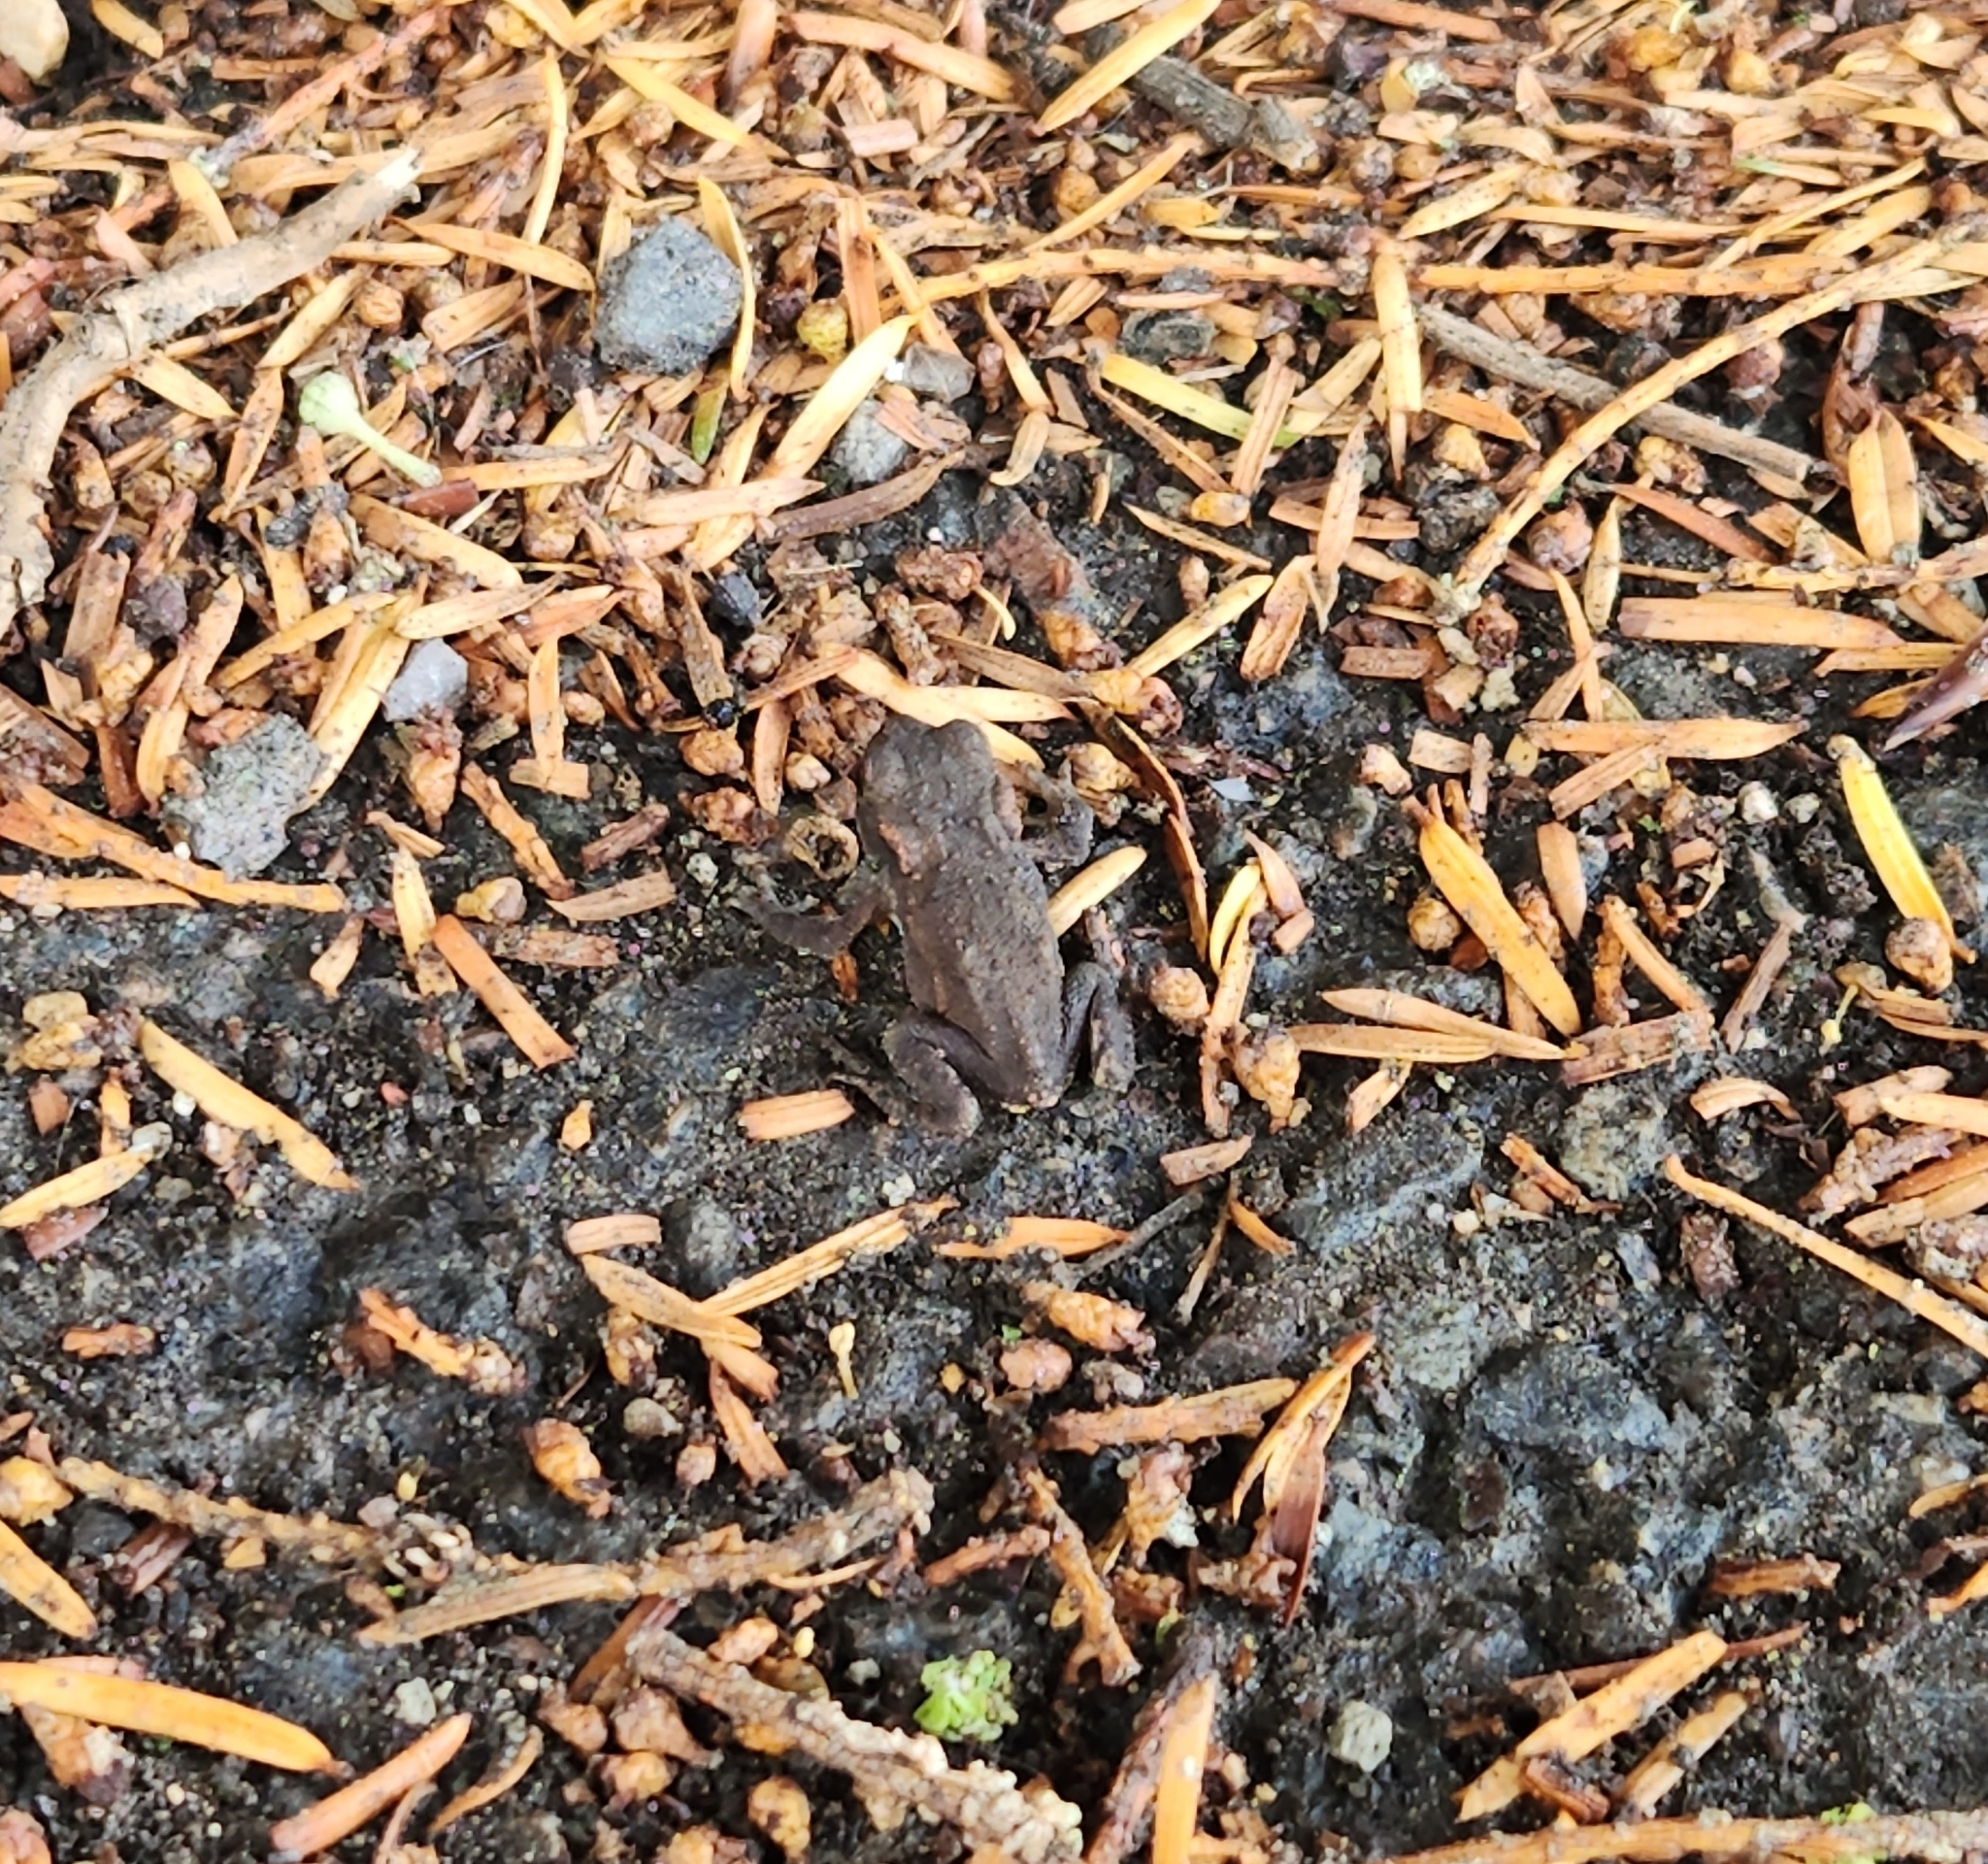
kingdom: Animalia
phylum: Chordata
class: Amphibia
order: Anura
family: Bufonidae
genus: Bufo
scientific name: Bufo bufo
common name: Common toad
